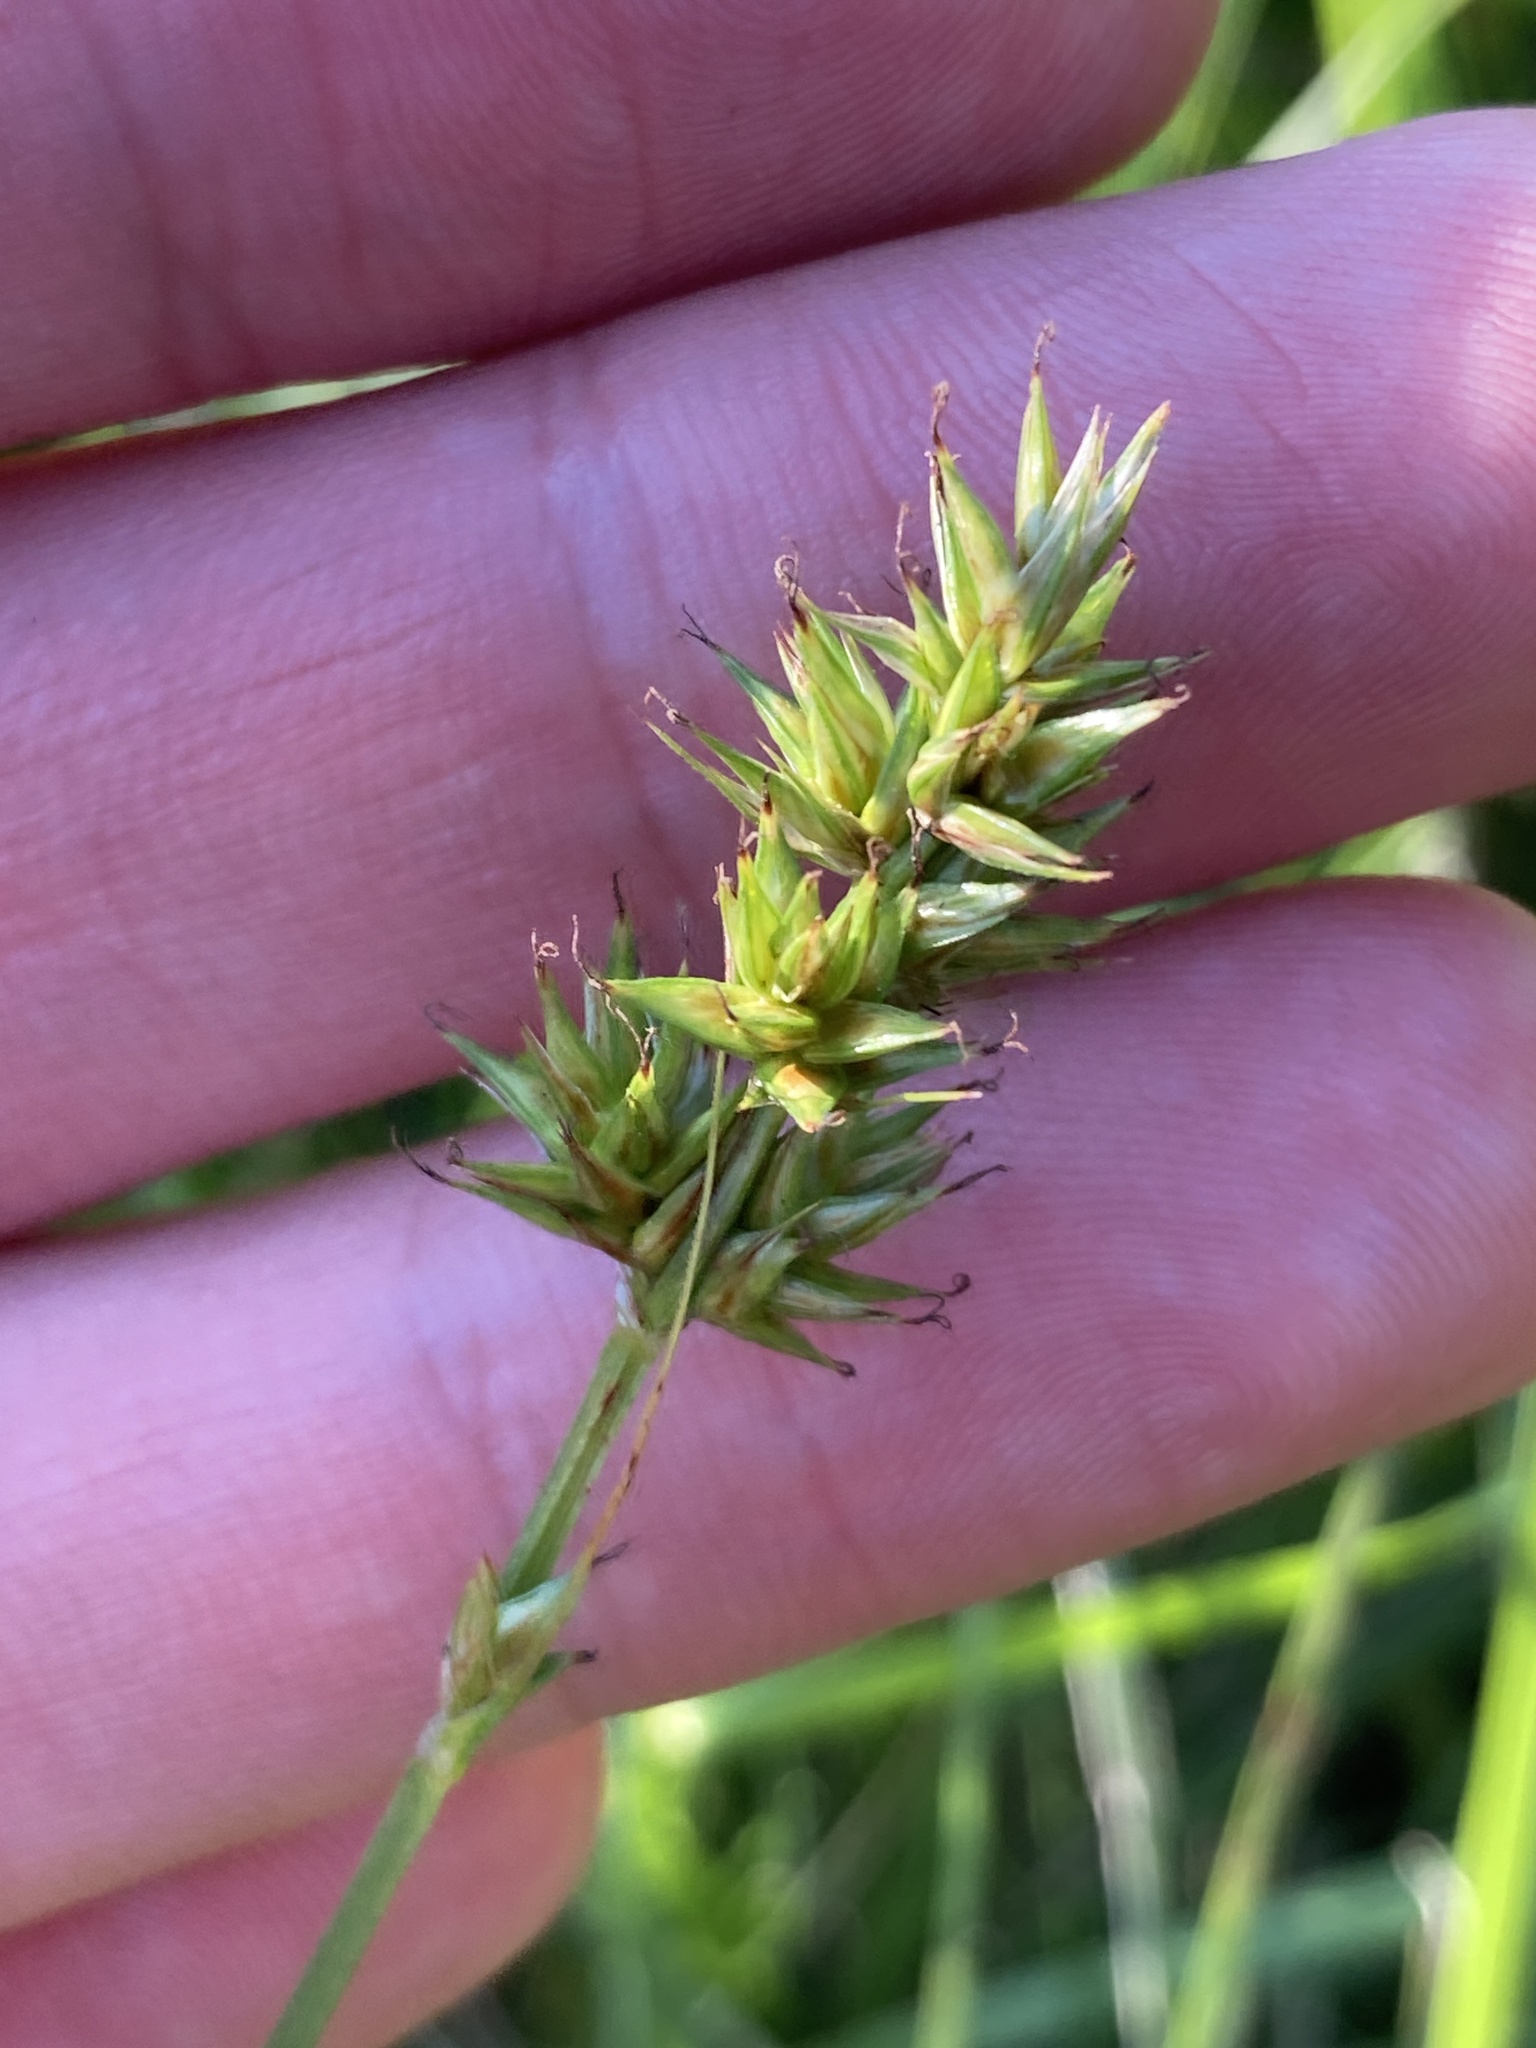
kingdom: Plantae
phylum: Tracheophyta
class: Liliopsida
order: Poales
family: Cyperaceae
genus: Carex
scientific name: Carex spicata
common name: Spiked sedge
